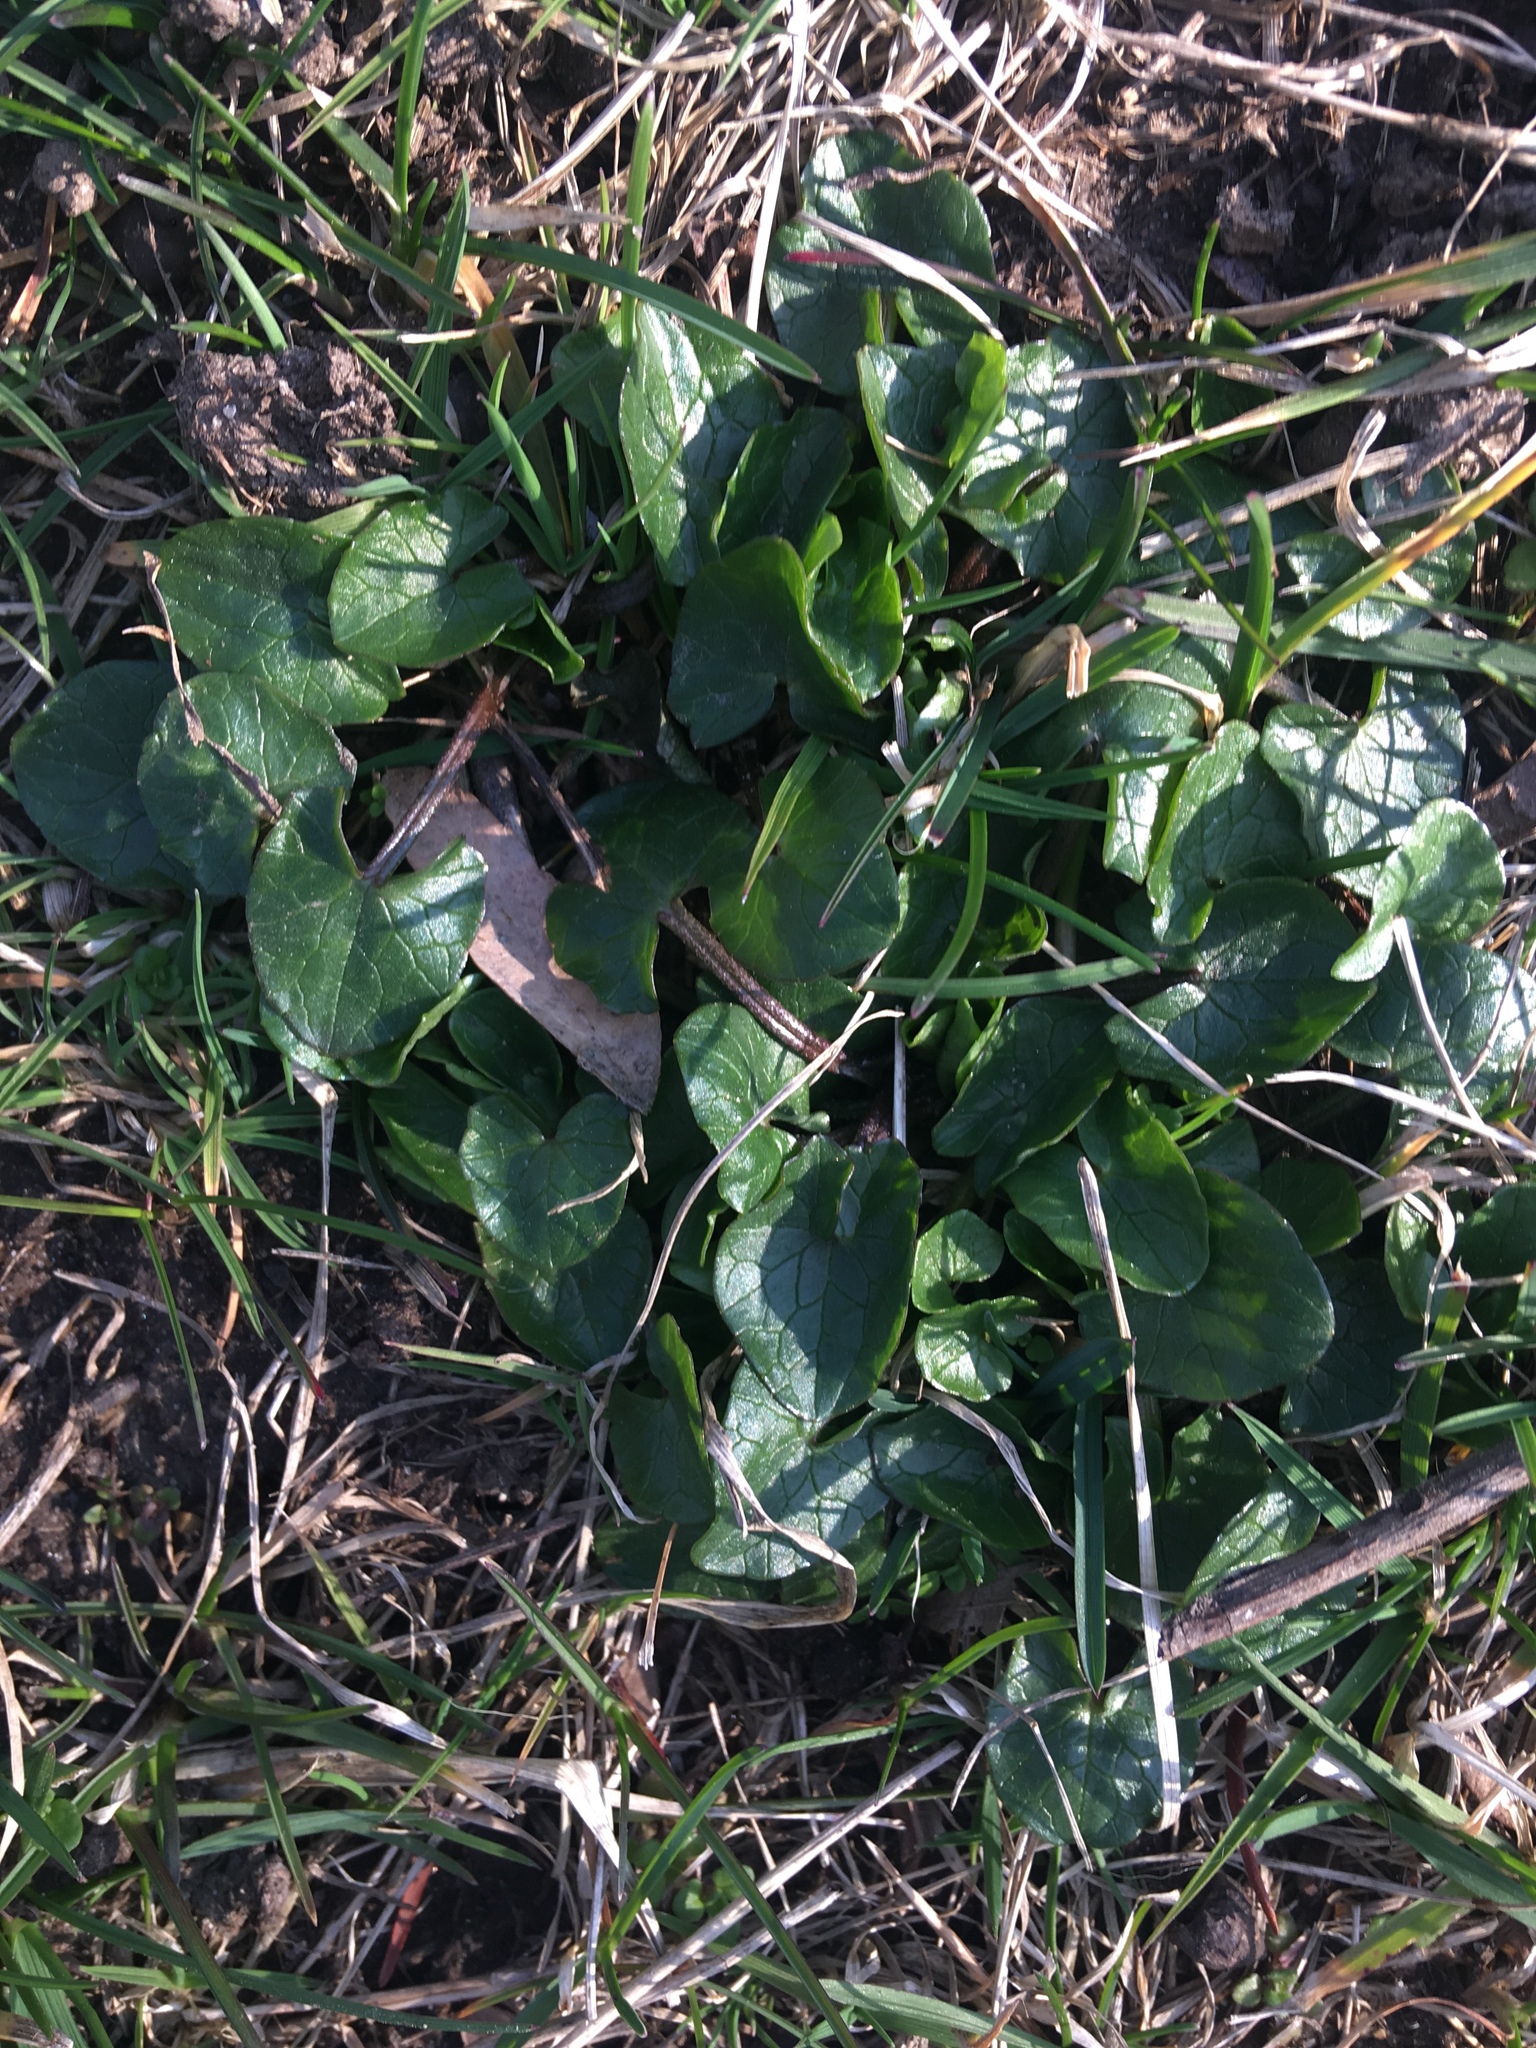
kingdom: Plantae
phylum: Tracheophyta
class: Magnoliopsida
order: Ranunculales
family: Ranunculaceae
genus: Ficaria
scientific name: Ficaria verna
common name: Lesser celandine
